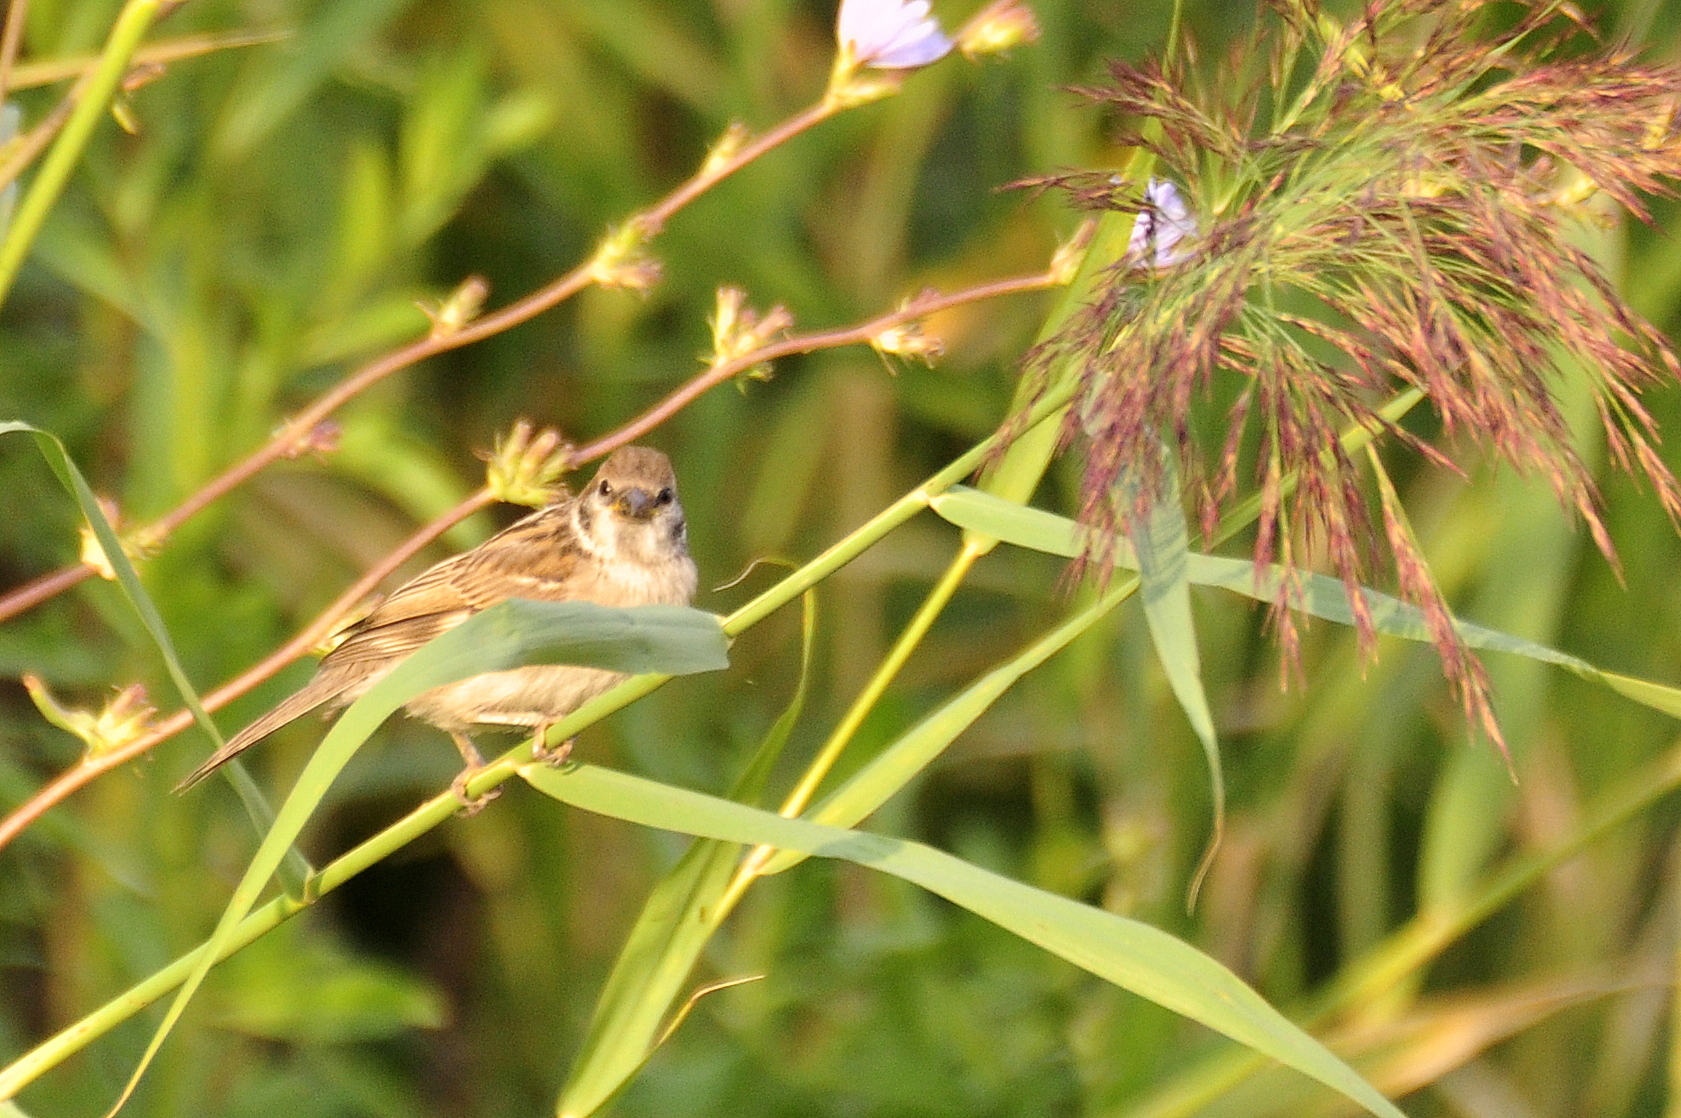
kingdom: Animalia
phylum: Chordata
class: Aves
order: Passeriformes
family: Passeridae
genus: Passer
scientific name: Passer montanus
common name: Eurasian tree sparrow
